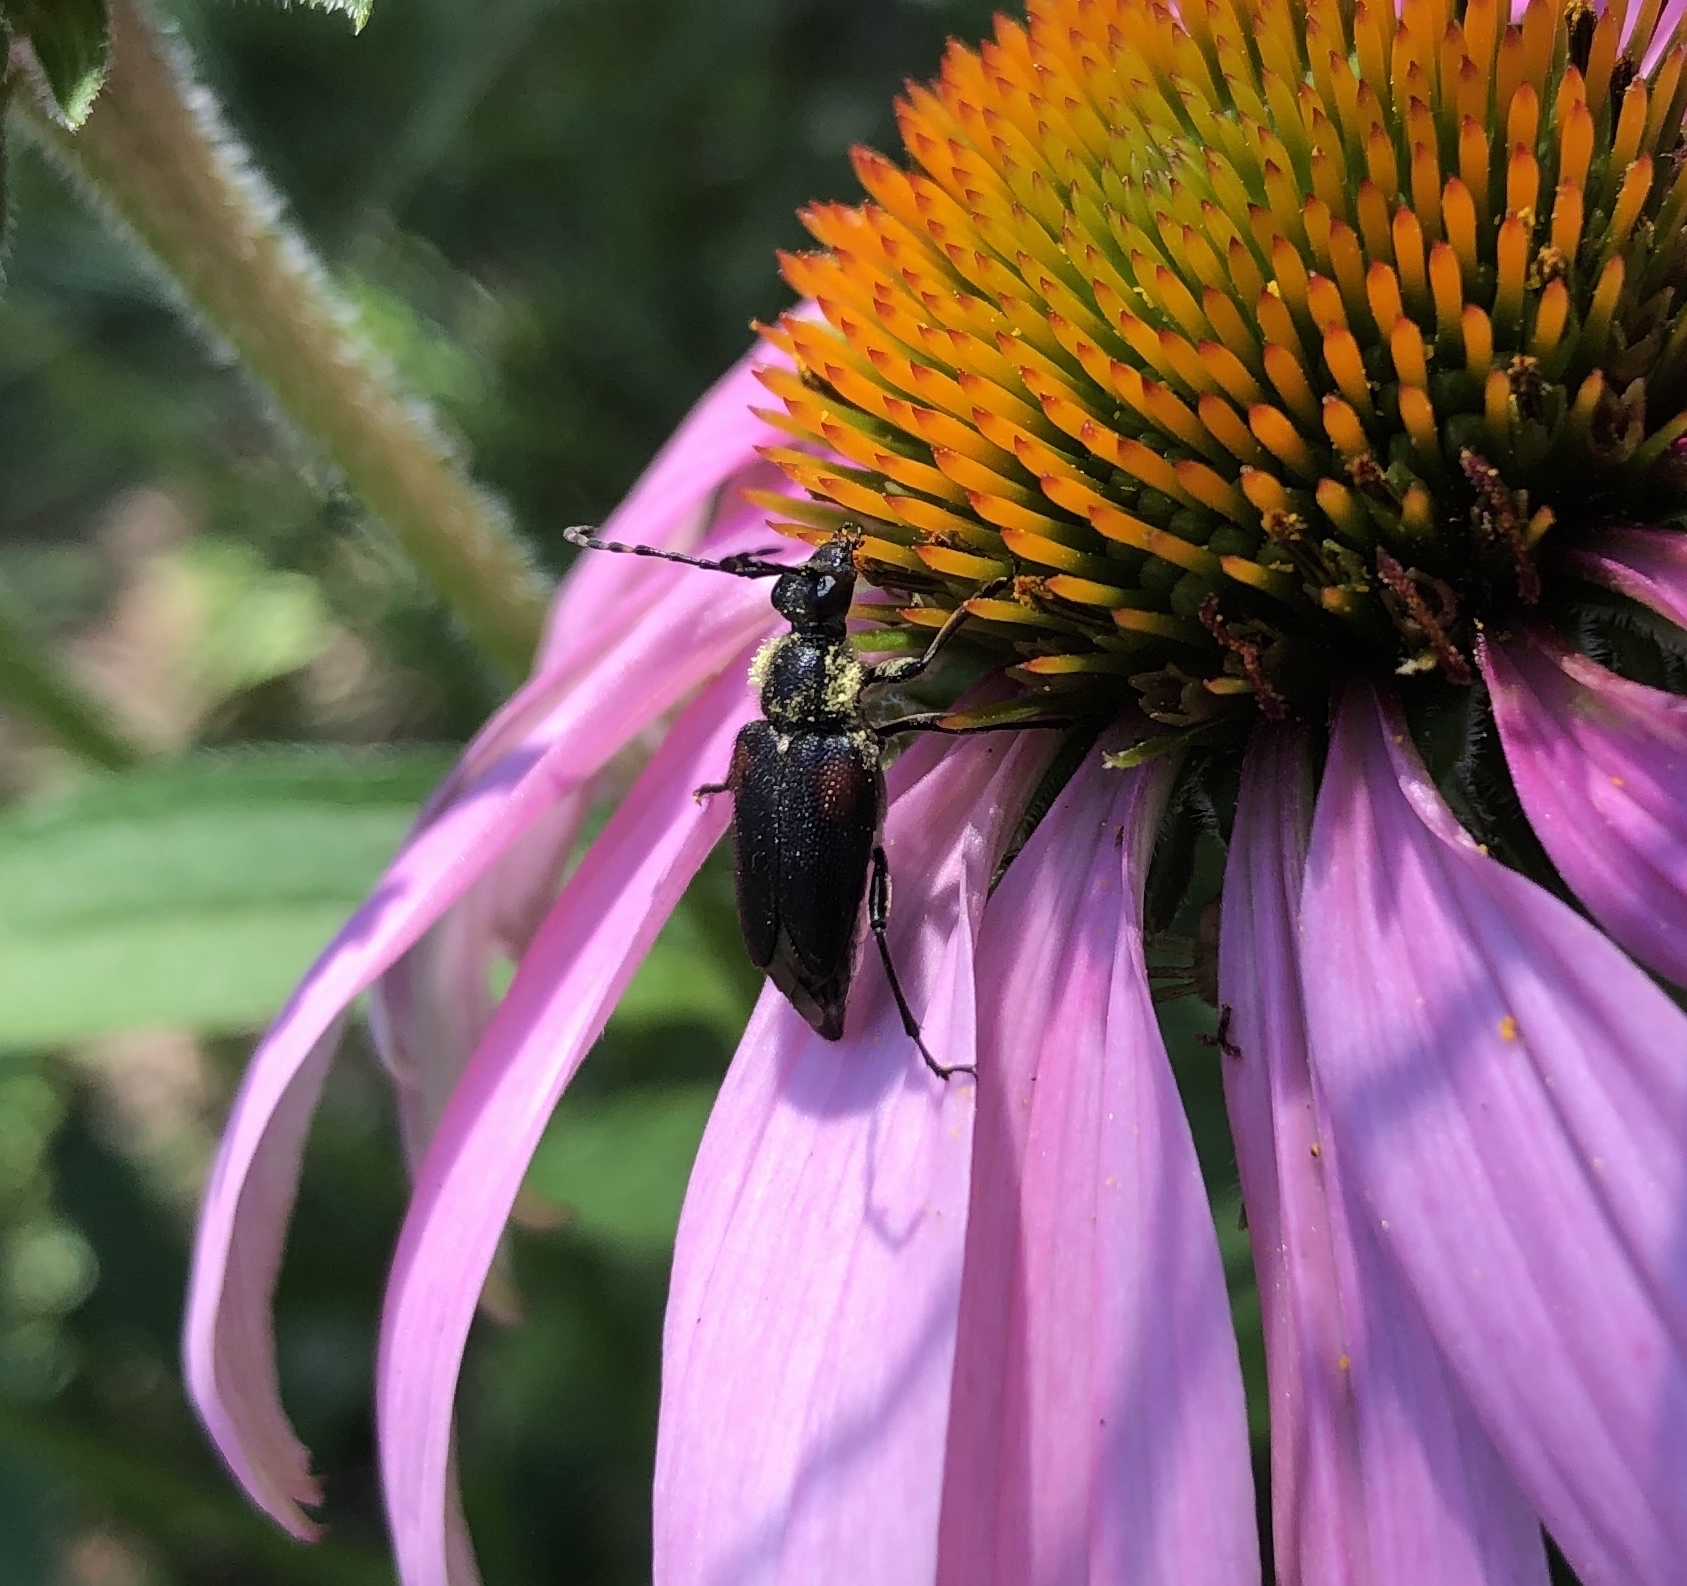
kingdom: Animalia
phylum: Arthropoda
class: Insecta
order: Coleoptera
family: Cerambycidae
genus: Brachyleptura
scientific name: Brachyleptura vagans
